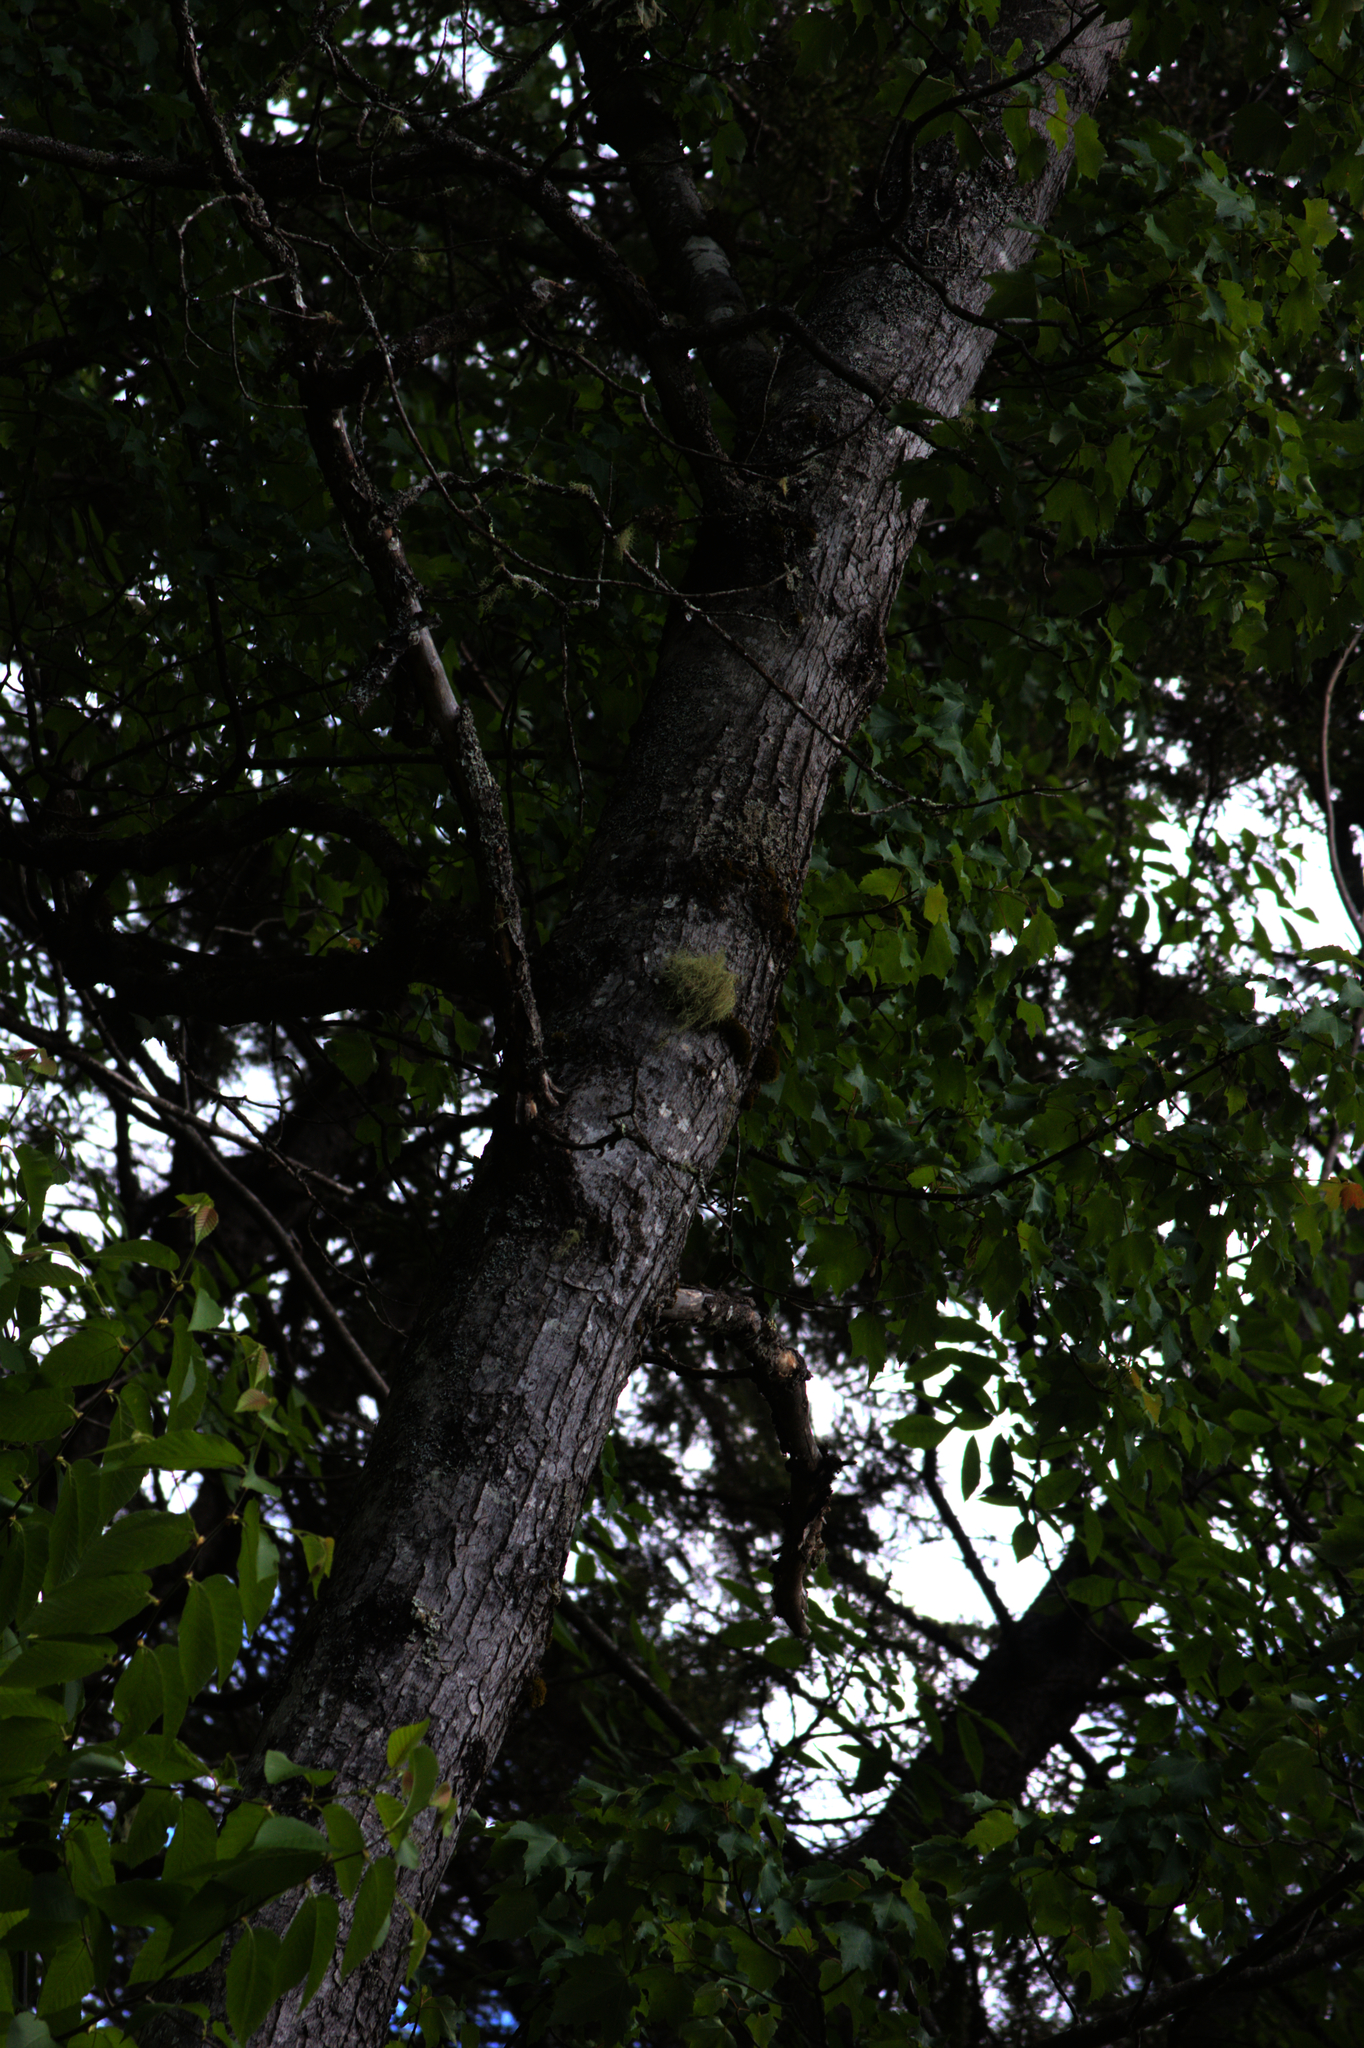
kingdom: Plantae
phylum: Tracheophyta
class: Magnoliopsida
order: Sapindales
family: Sapindaceae
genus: Acer
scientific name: Acer rubrum
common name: Red maple
